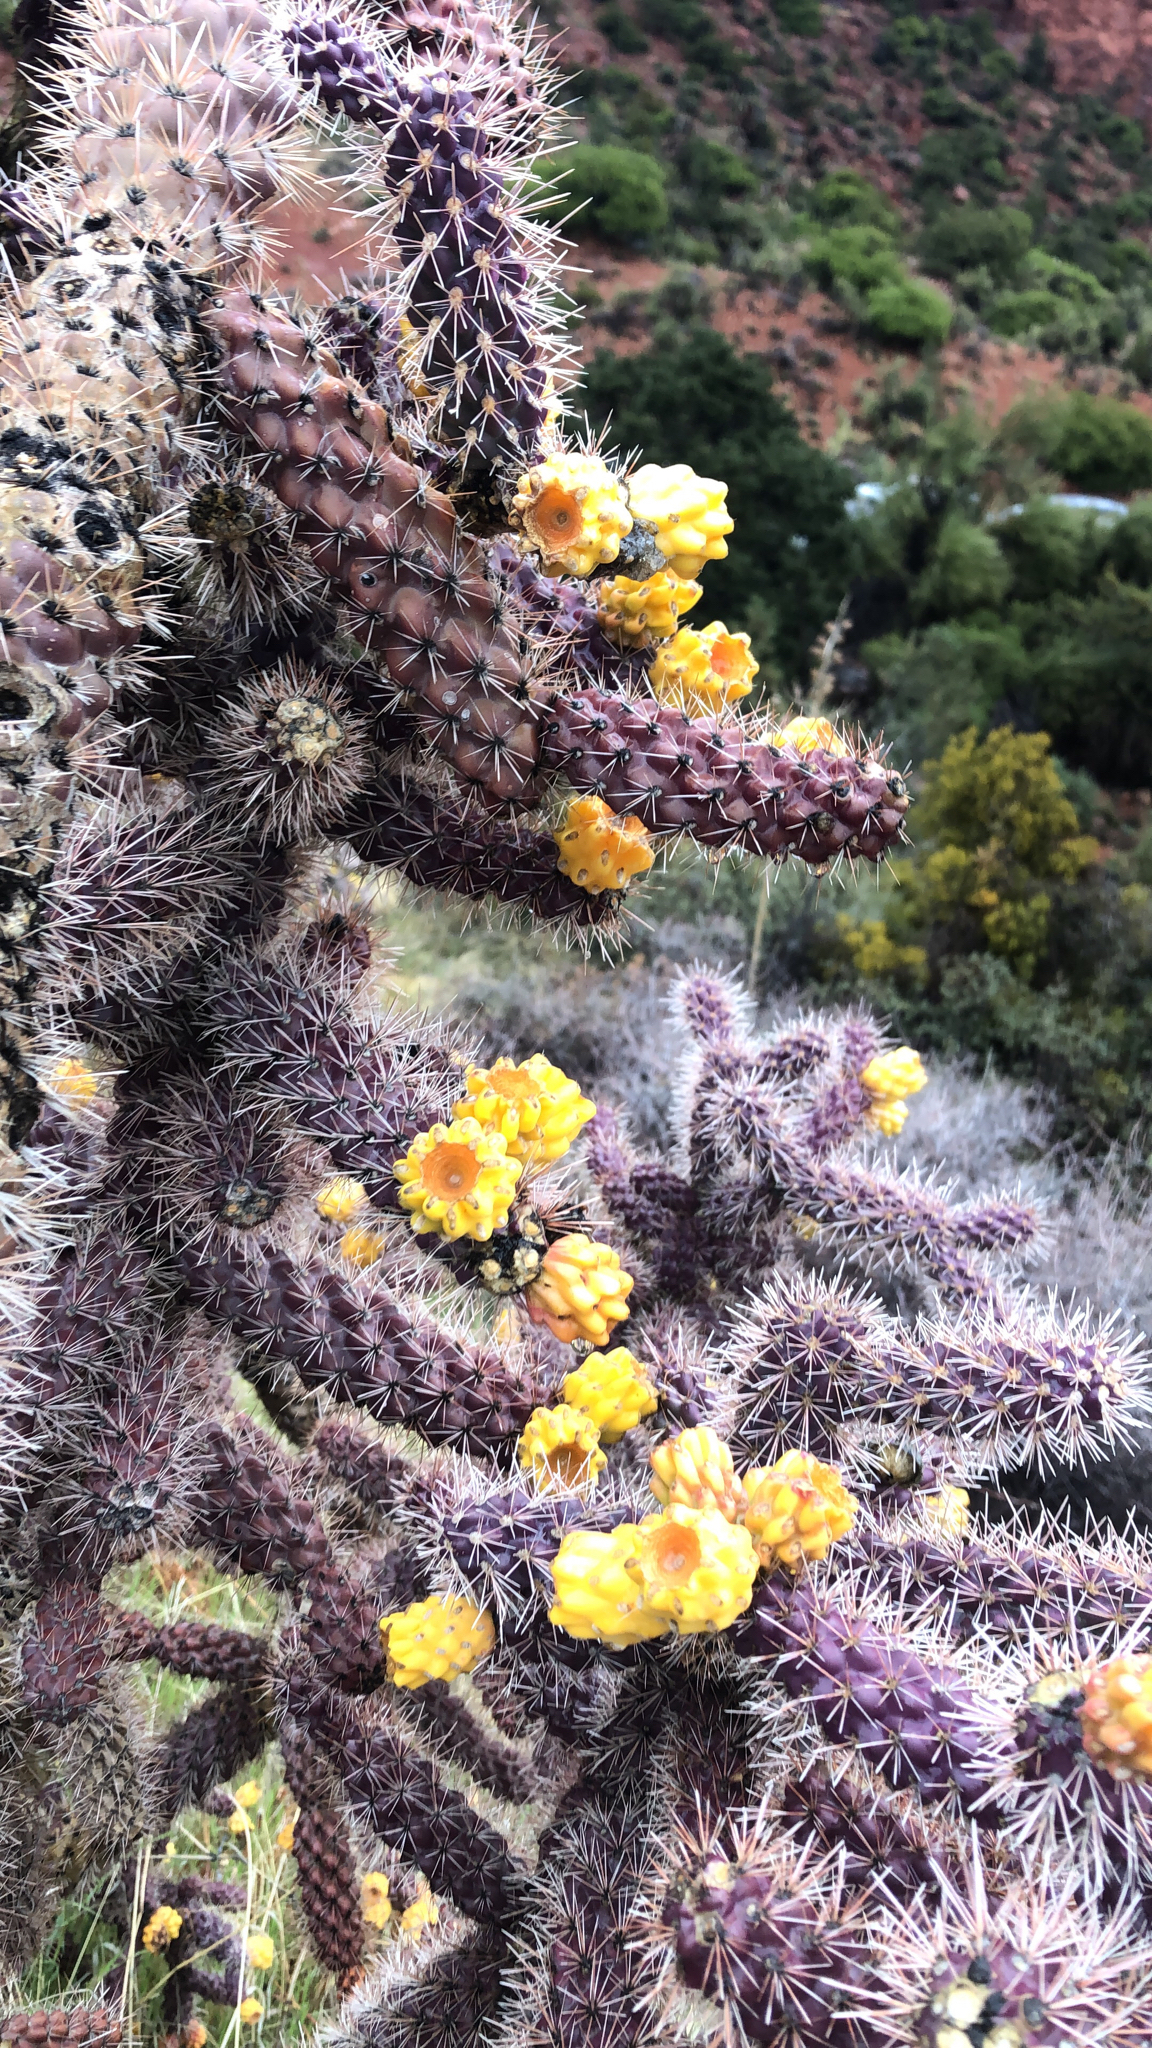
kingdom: Plantae
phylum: Tracheophyta
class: Magnoliopsida
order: Caryophyllales
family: Cactaceae
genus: Cylindropuntia
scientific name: Cylindropuntia imbricata
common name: Candelabrum cactus
